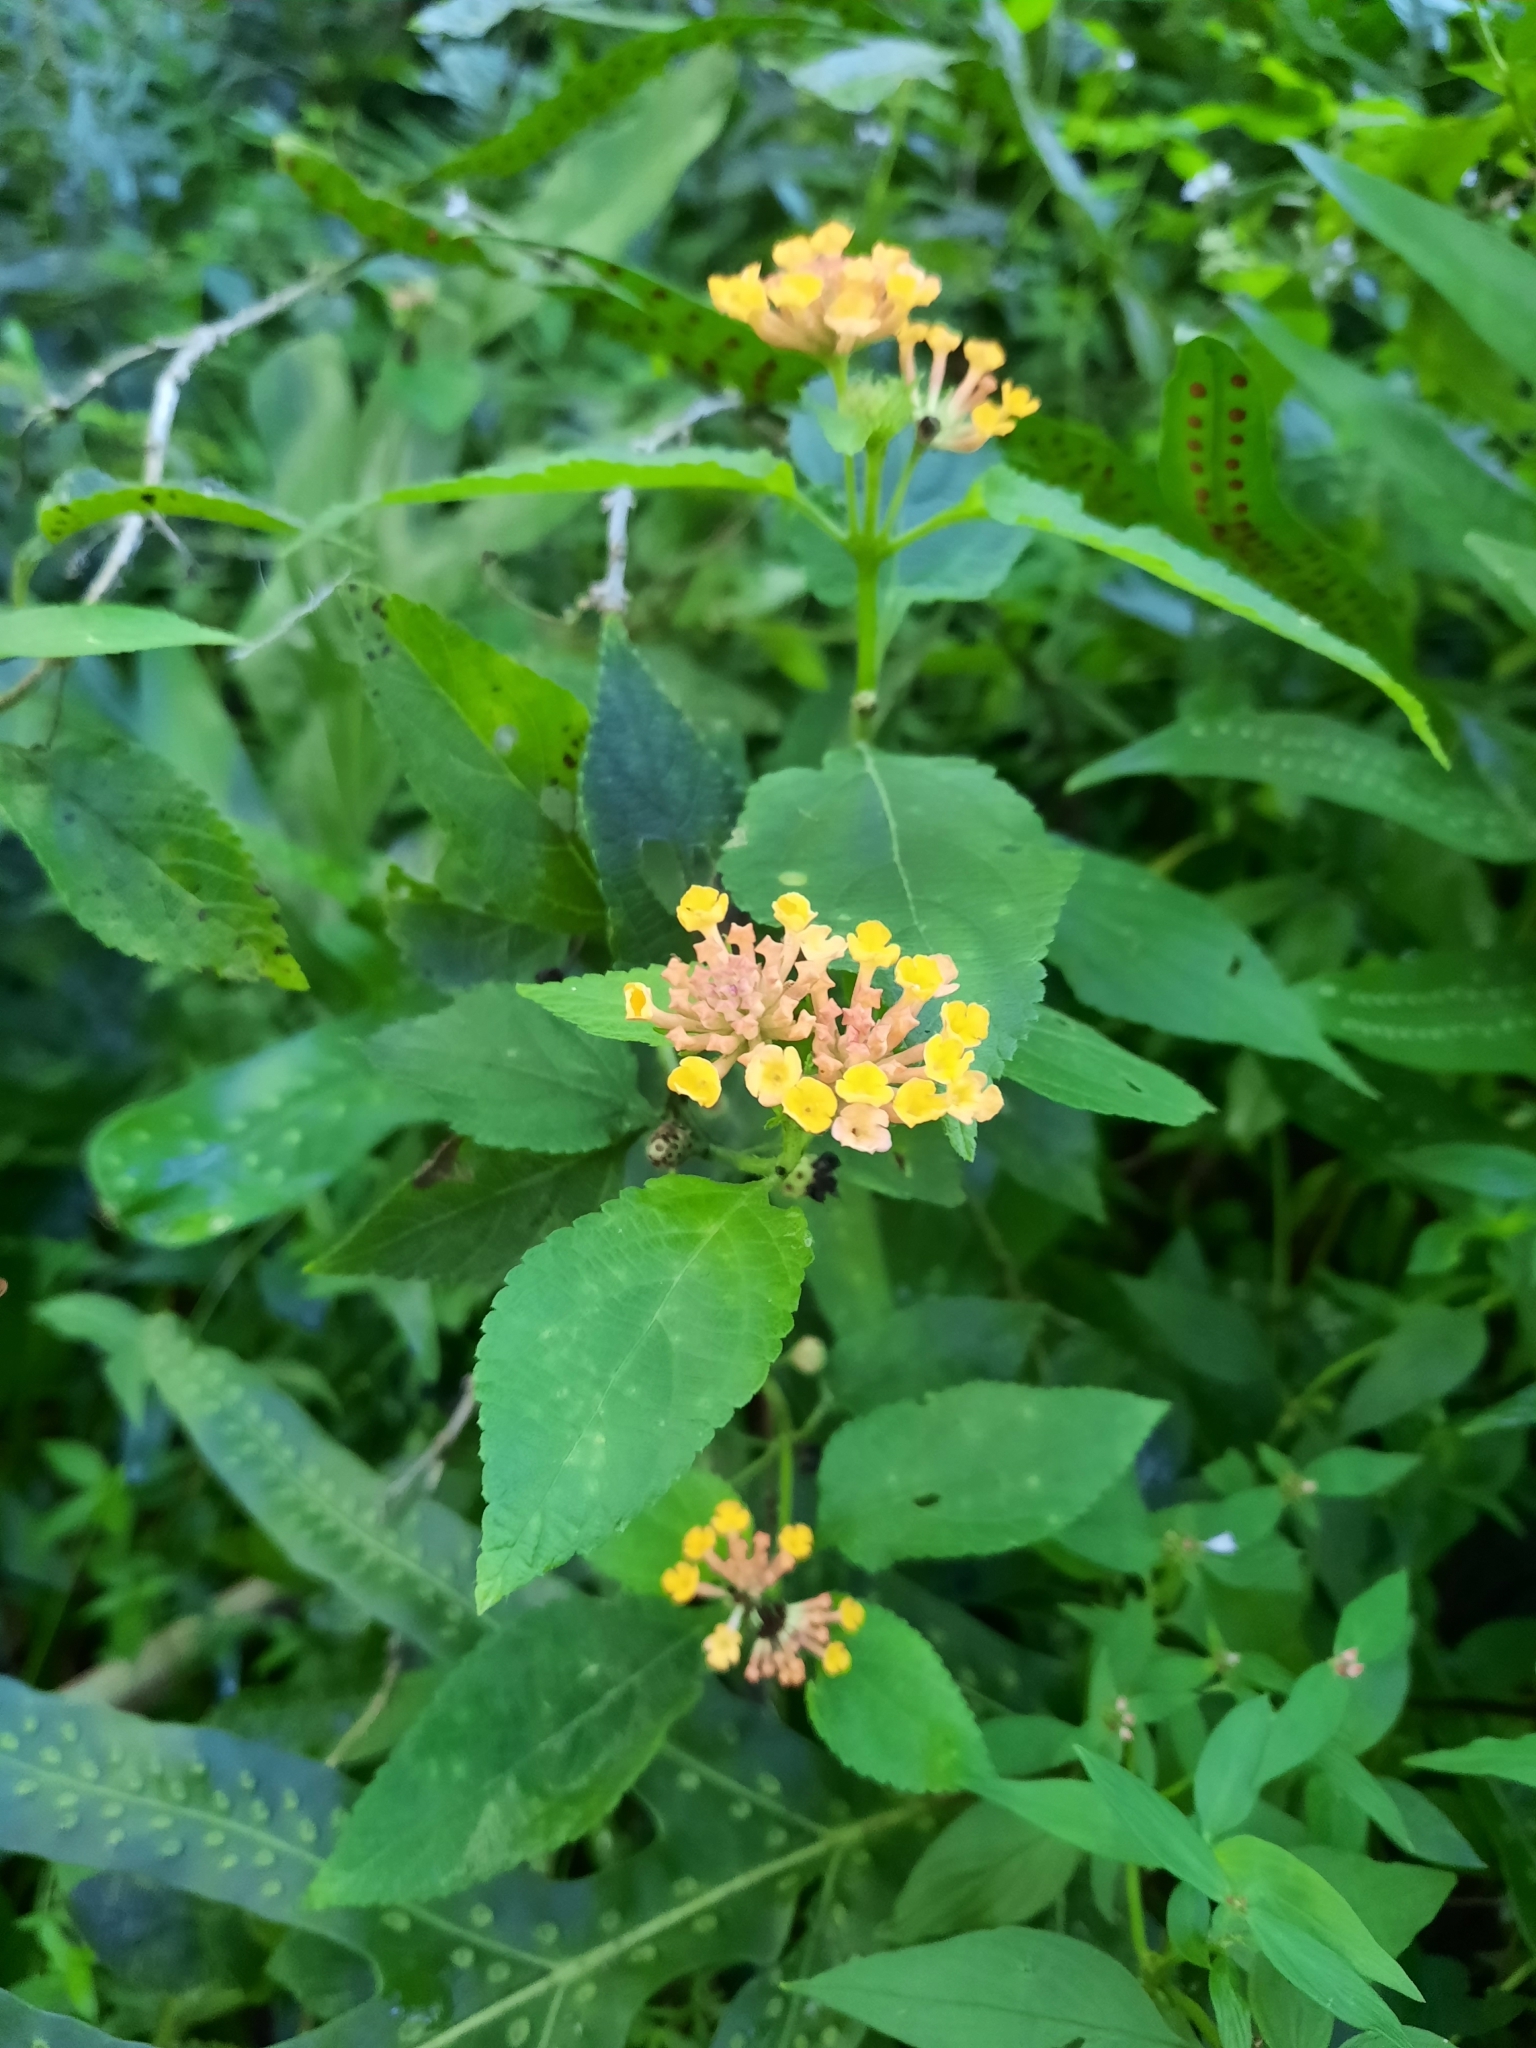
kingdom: Plantae
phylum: Tracheophyta
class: Magnoliopsida
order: Lamiales
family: Verbenaceae
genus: Lantana
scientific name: Lantana camara
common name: Lantana
